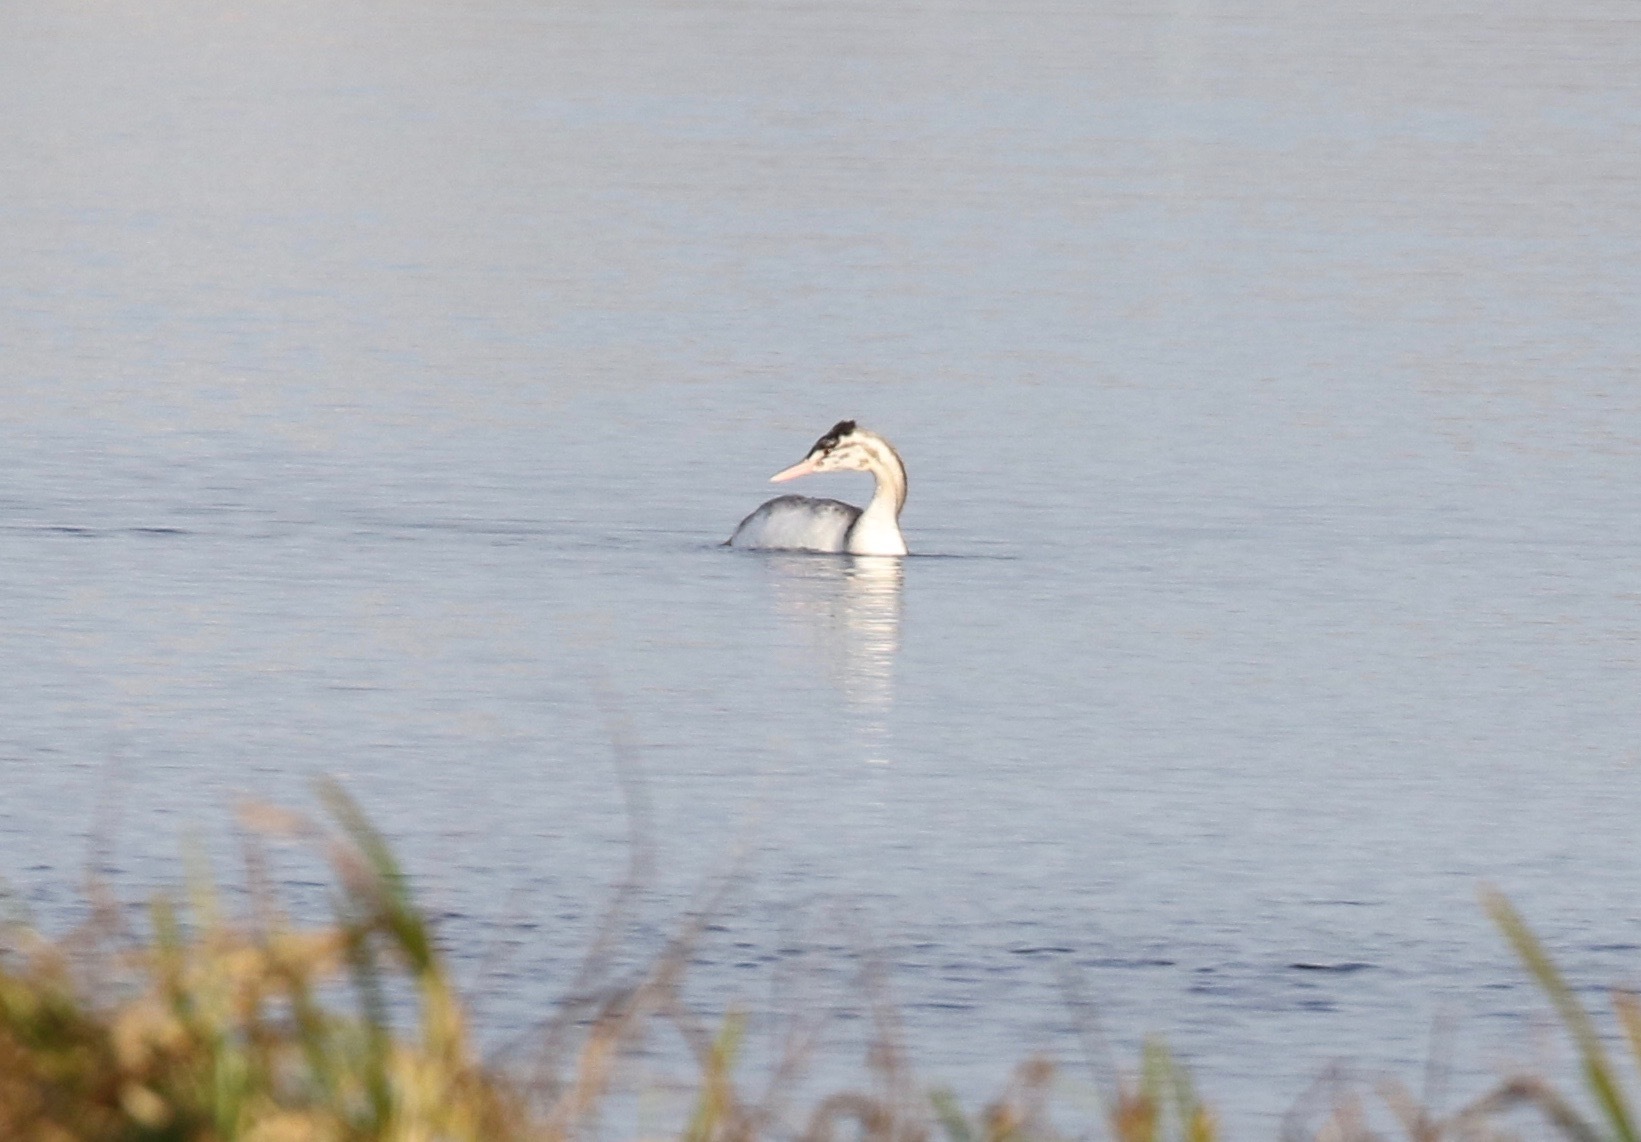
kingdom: Animalia
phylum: Chordata
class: Aves
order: Podicipediformes
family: Podicipedidae
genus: Podiceps
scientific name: Podiceps cristatus
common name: Great crested grebe
